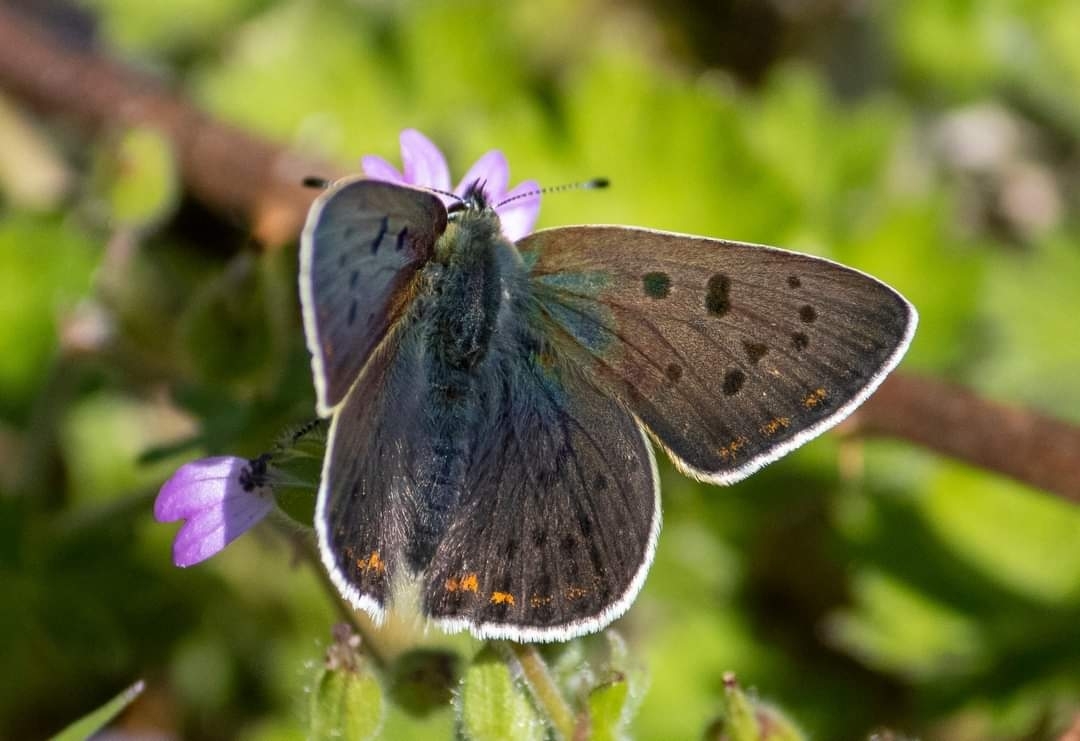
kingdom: Animalia
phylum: Arthropoda
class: Insecta
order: Lepidoptera
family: Lycaenidae
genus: Loweia
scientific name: Loweia tityrus
